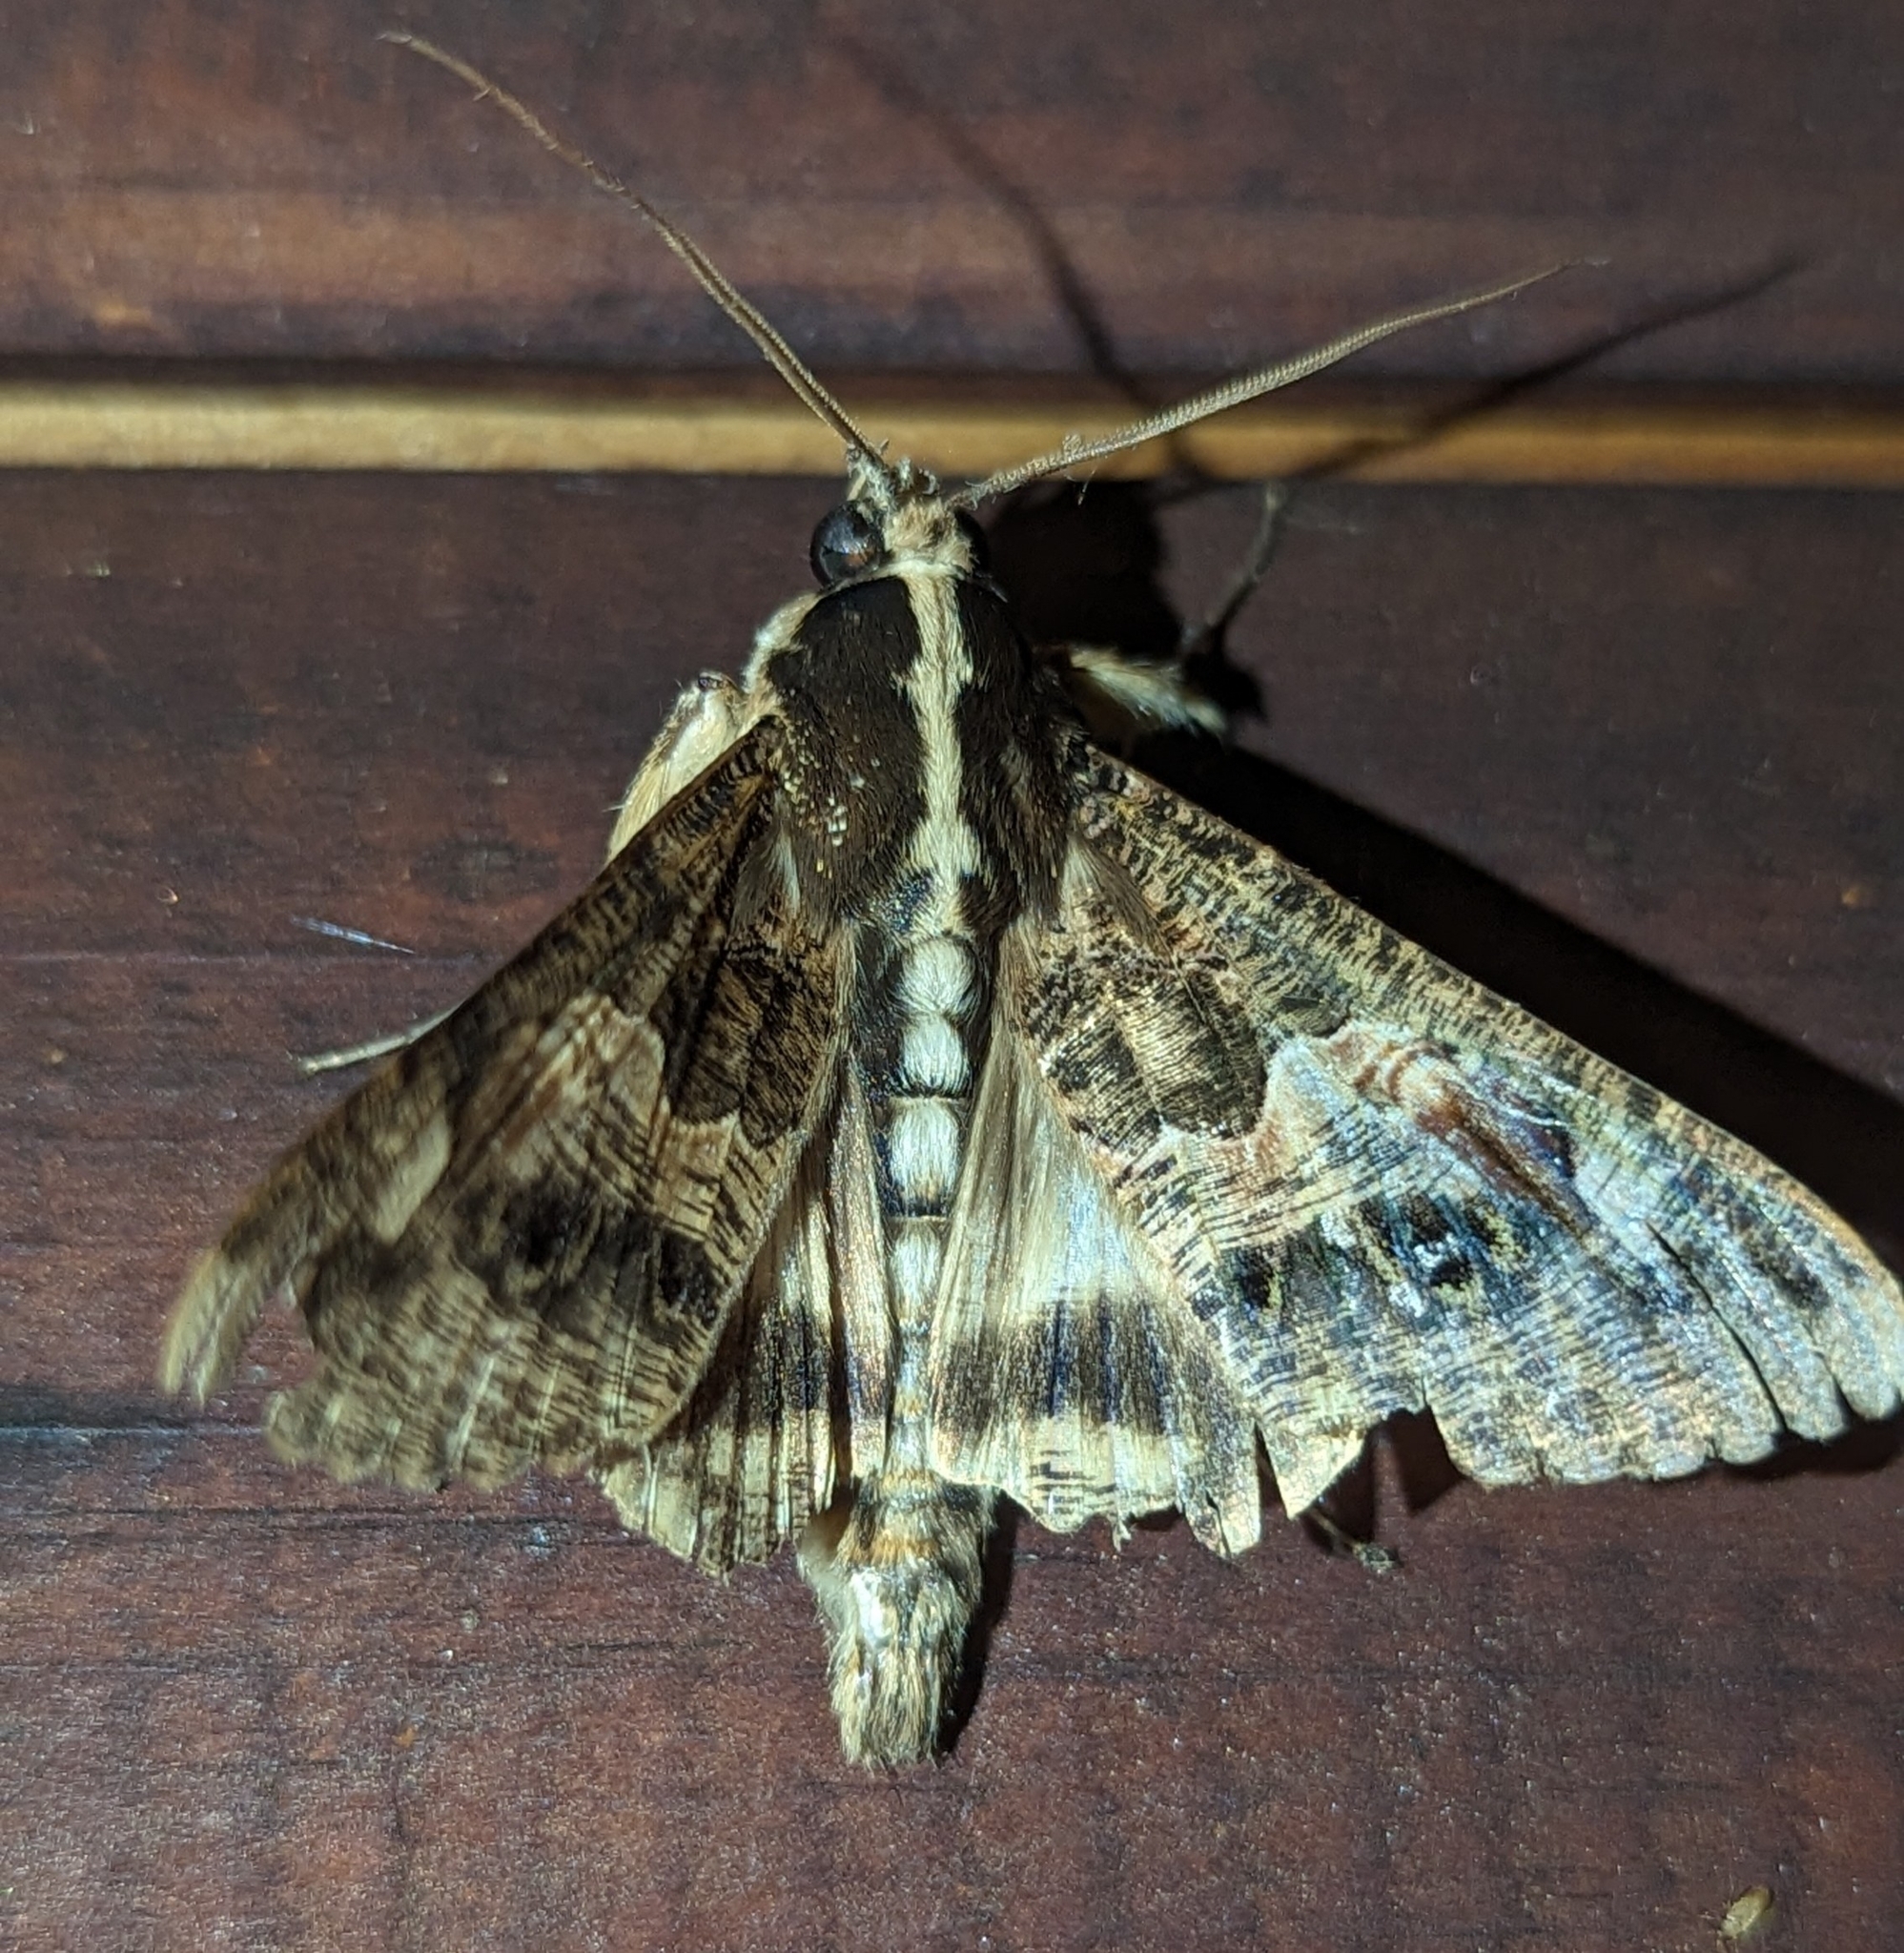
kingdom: Animalia
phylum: Arthropoda
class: Insecta
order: Lepidoptera
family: Erebidae
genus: Sphingomorpha
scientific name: Sphingomorpha chlorea
